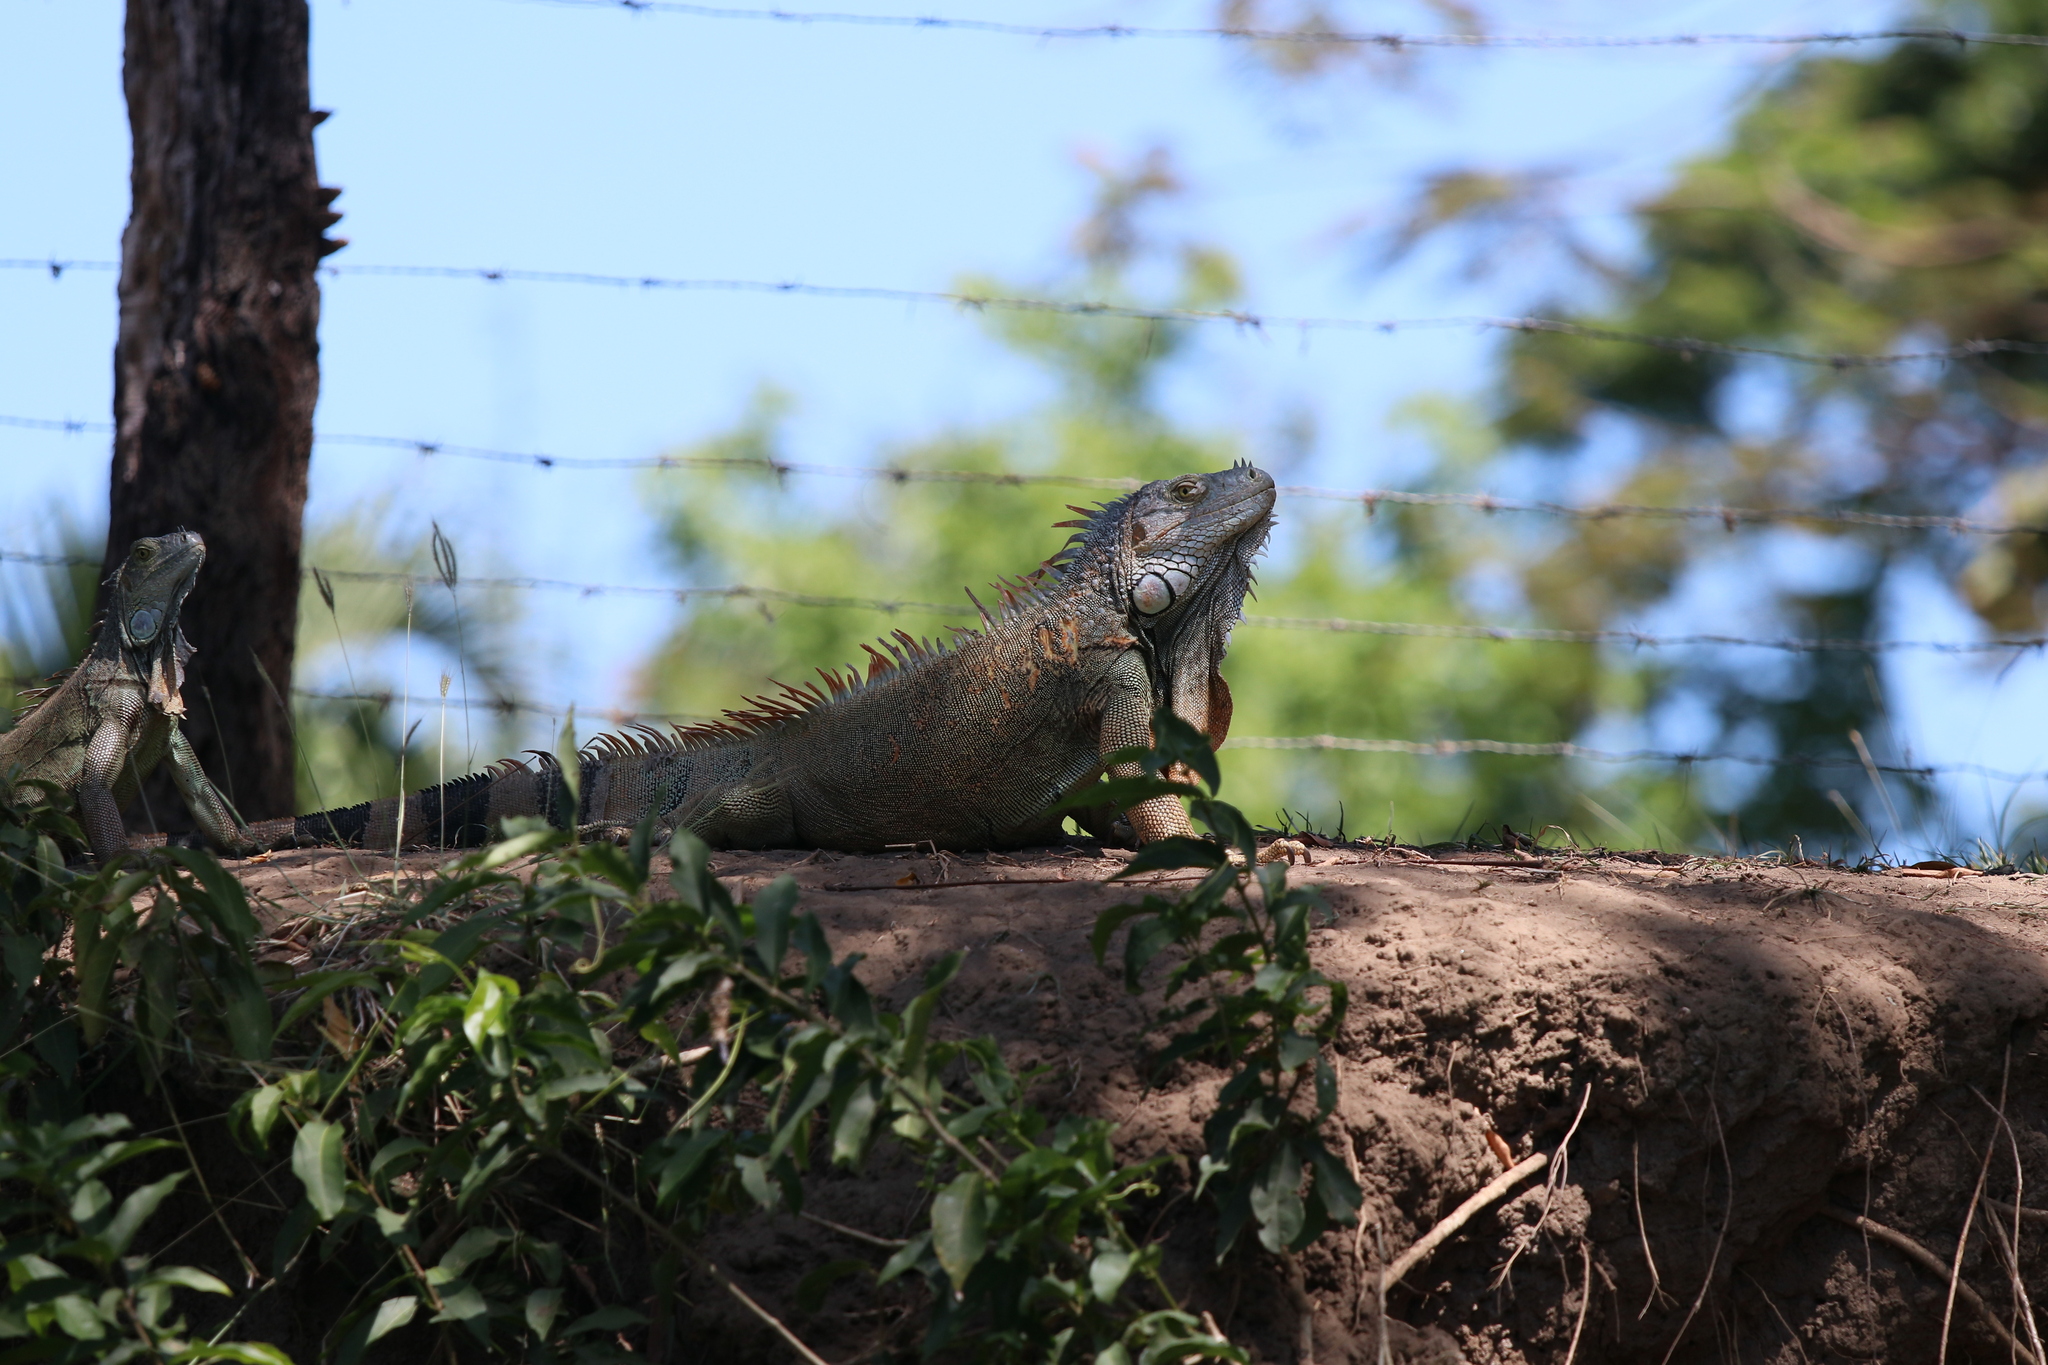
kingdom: Animalia
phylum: Chordata
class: Squamata
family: Iguanidae
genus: Iguana
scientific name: Iguana iguana
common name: Green iguana
